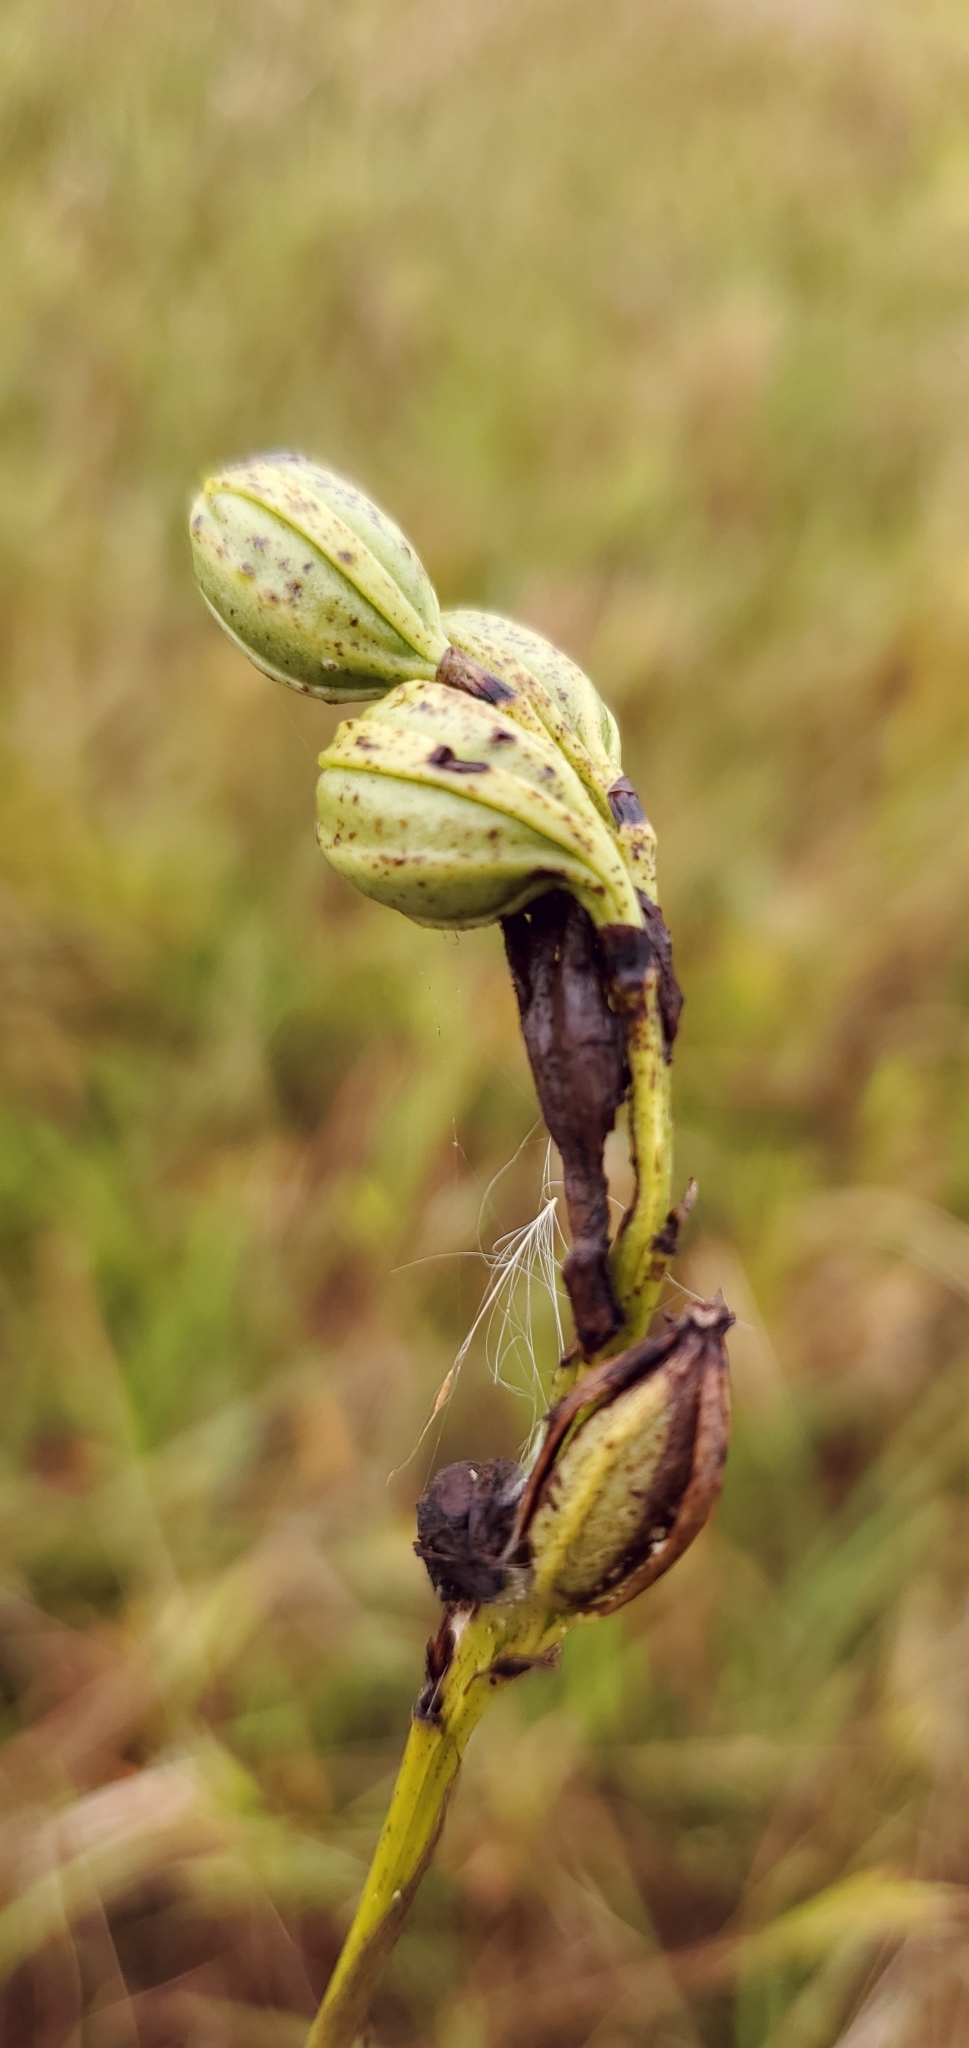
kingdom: Plantae
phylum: Tracheophyta
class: Liliopsida
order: Asparagales
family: Orchidaceae
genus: Eulophia
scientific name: Eulophia ecristata
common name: Giant orchid
